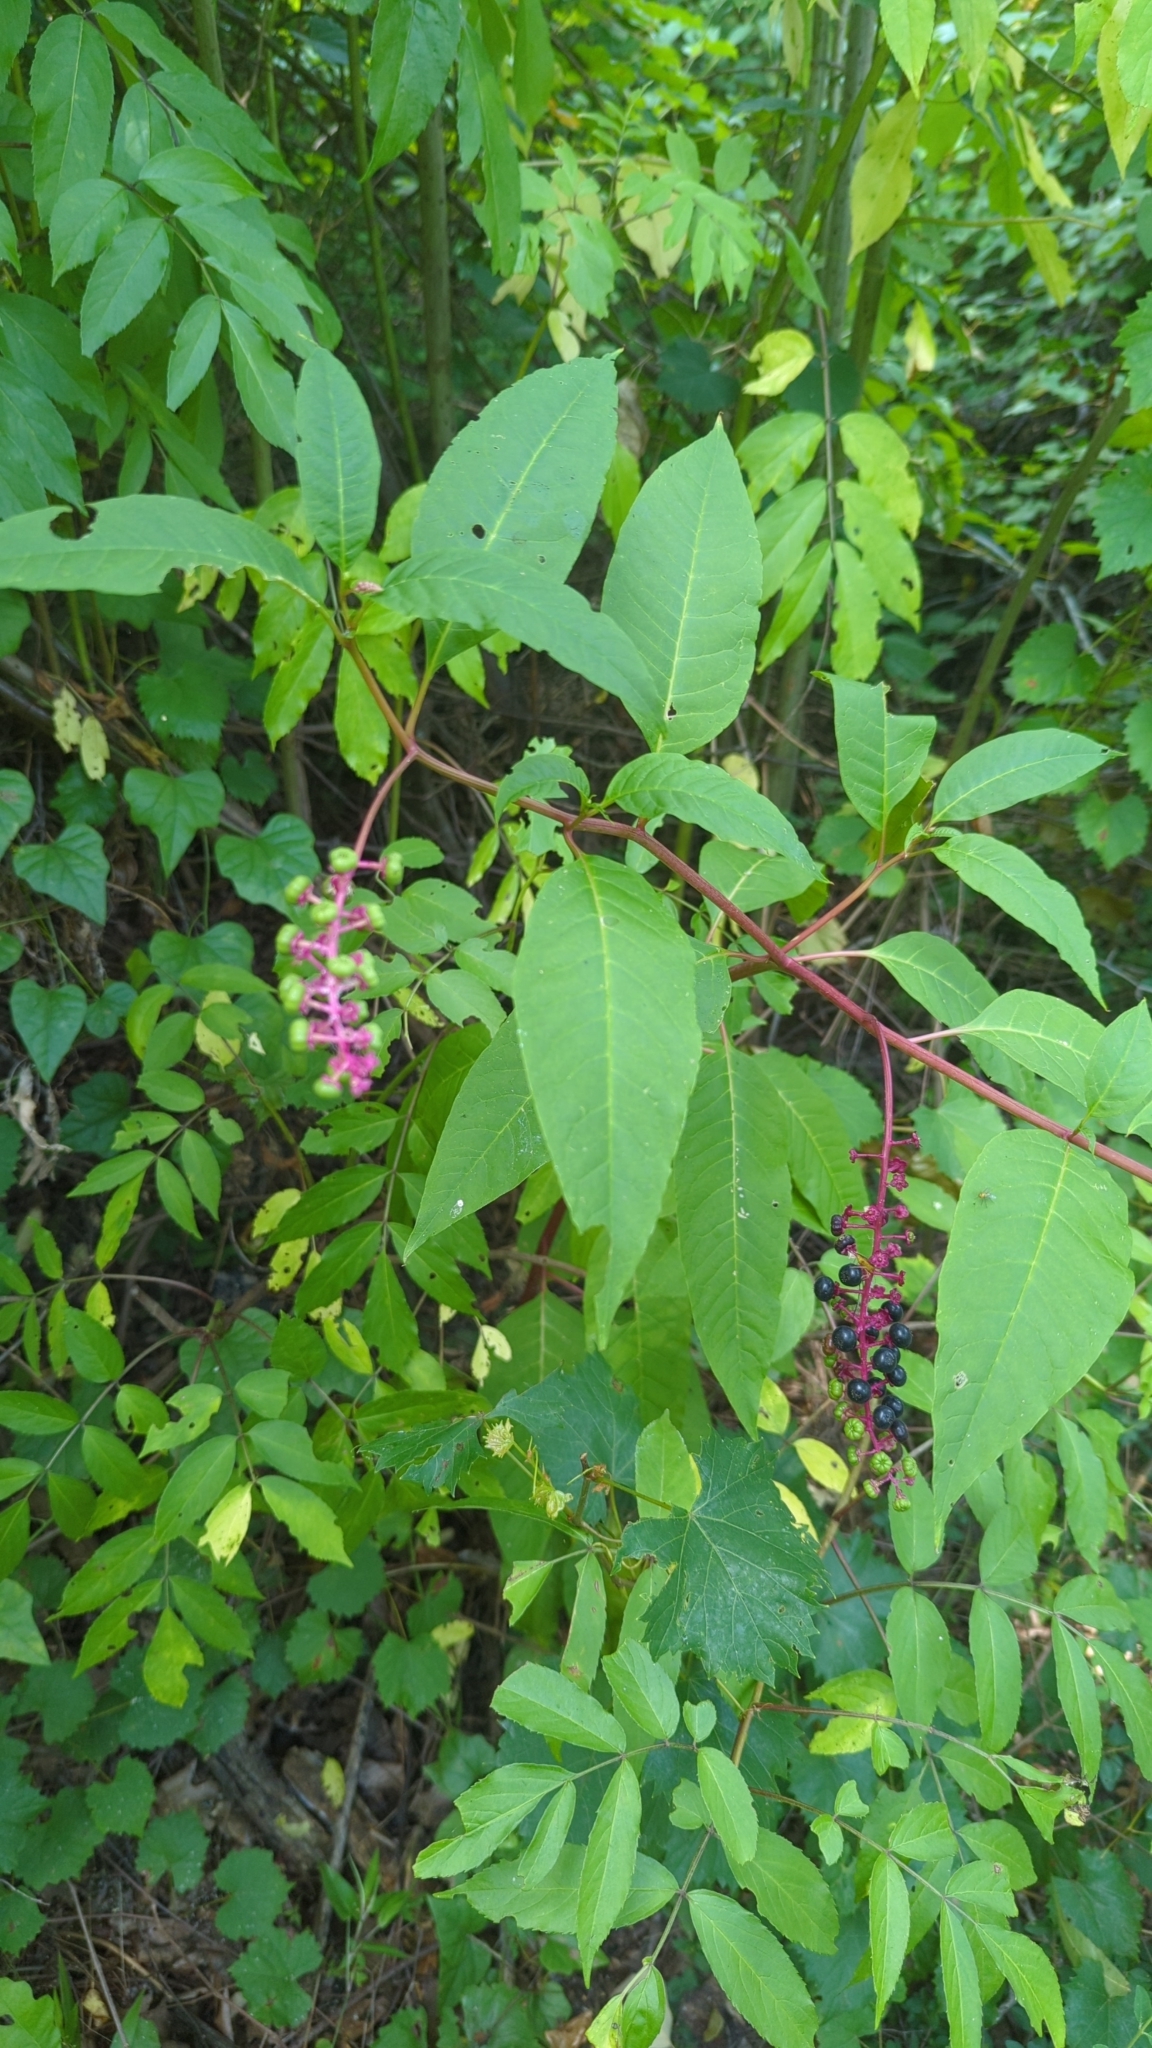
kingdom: Plantae
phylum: Tracheophyta
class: Magnoliopsida
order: Caryophyllales
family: Phytolaccaceae
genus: Phytolacca
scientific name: Phytolacca americana
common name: American pokeweed
